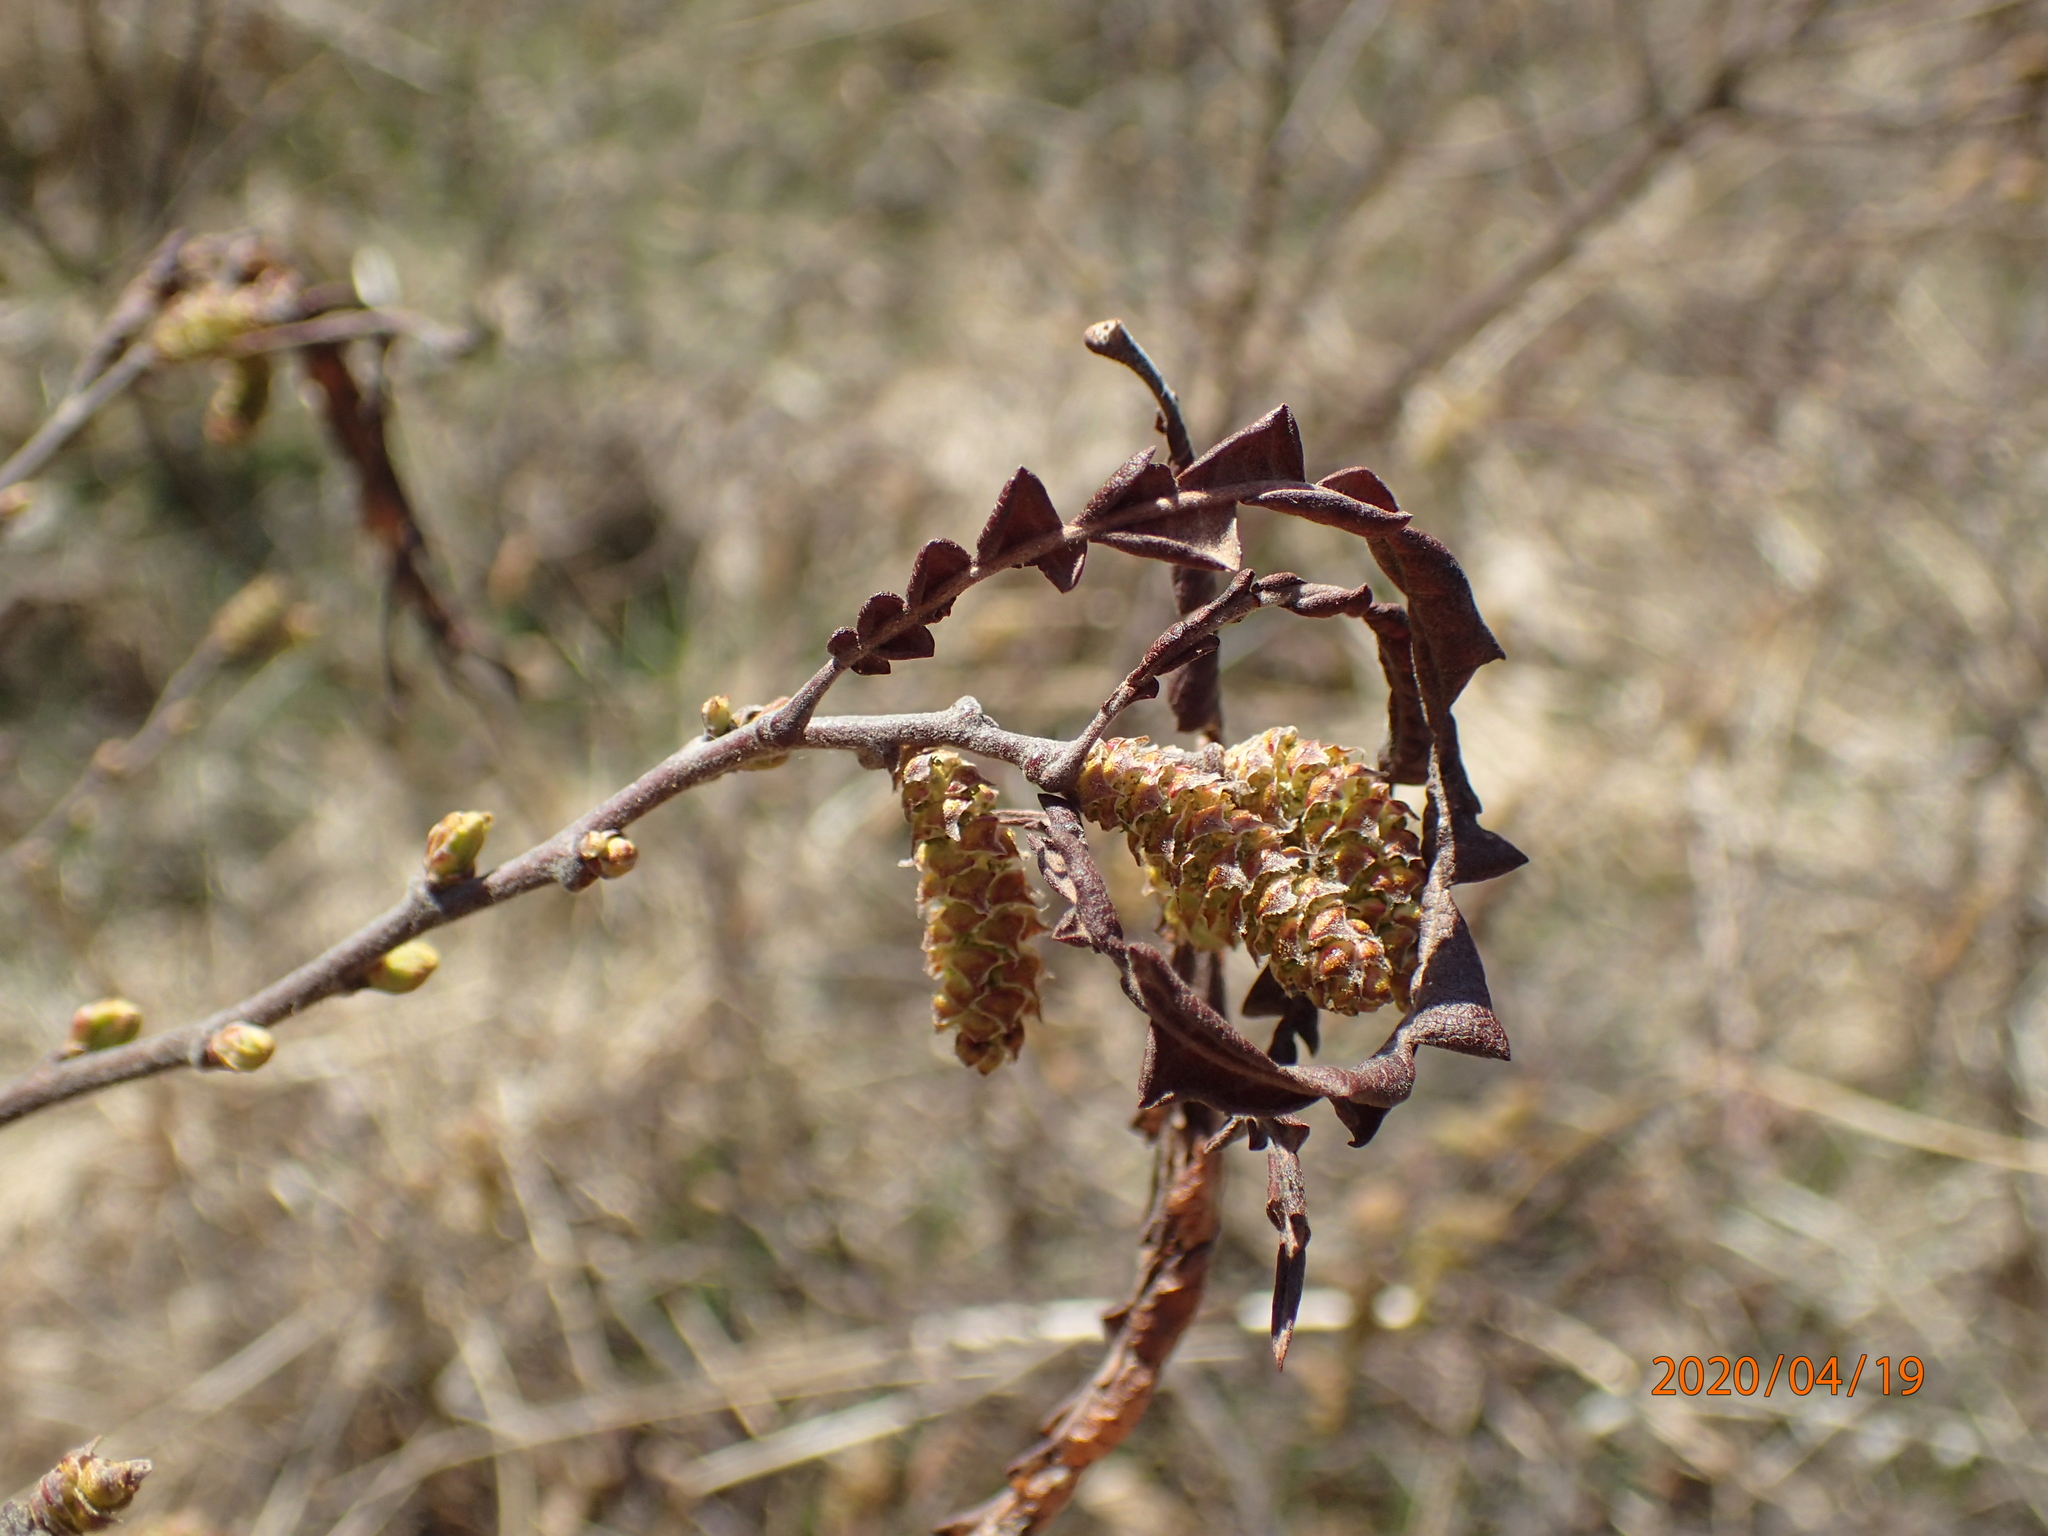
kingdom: Plantae
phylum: Tracheophyta
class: Magnoliopsida
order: Fagales
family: Myricaceae
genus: Comptonia
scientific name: Comptonia peregrina
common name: Sweet-fern
